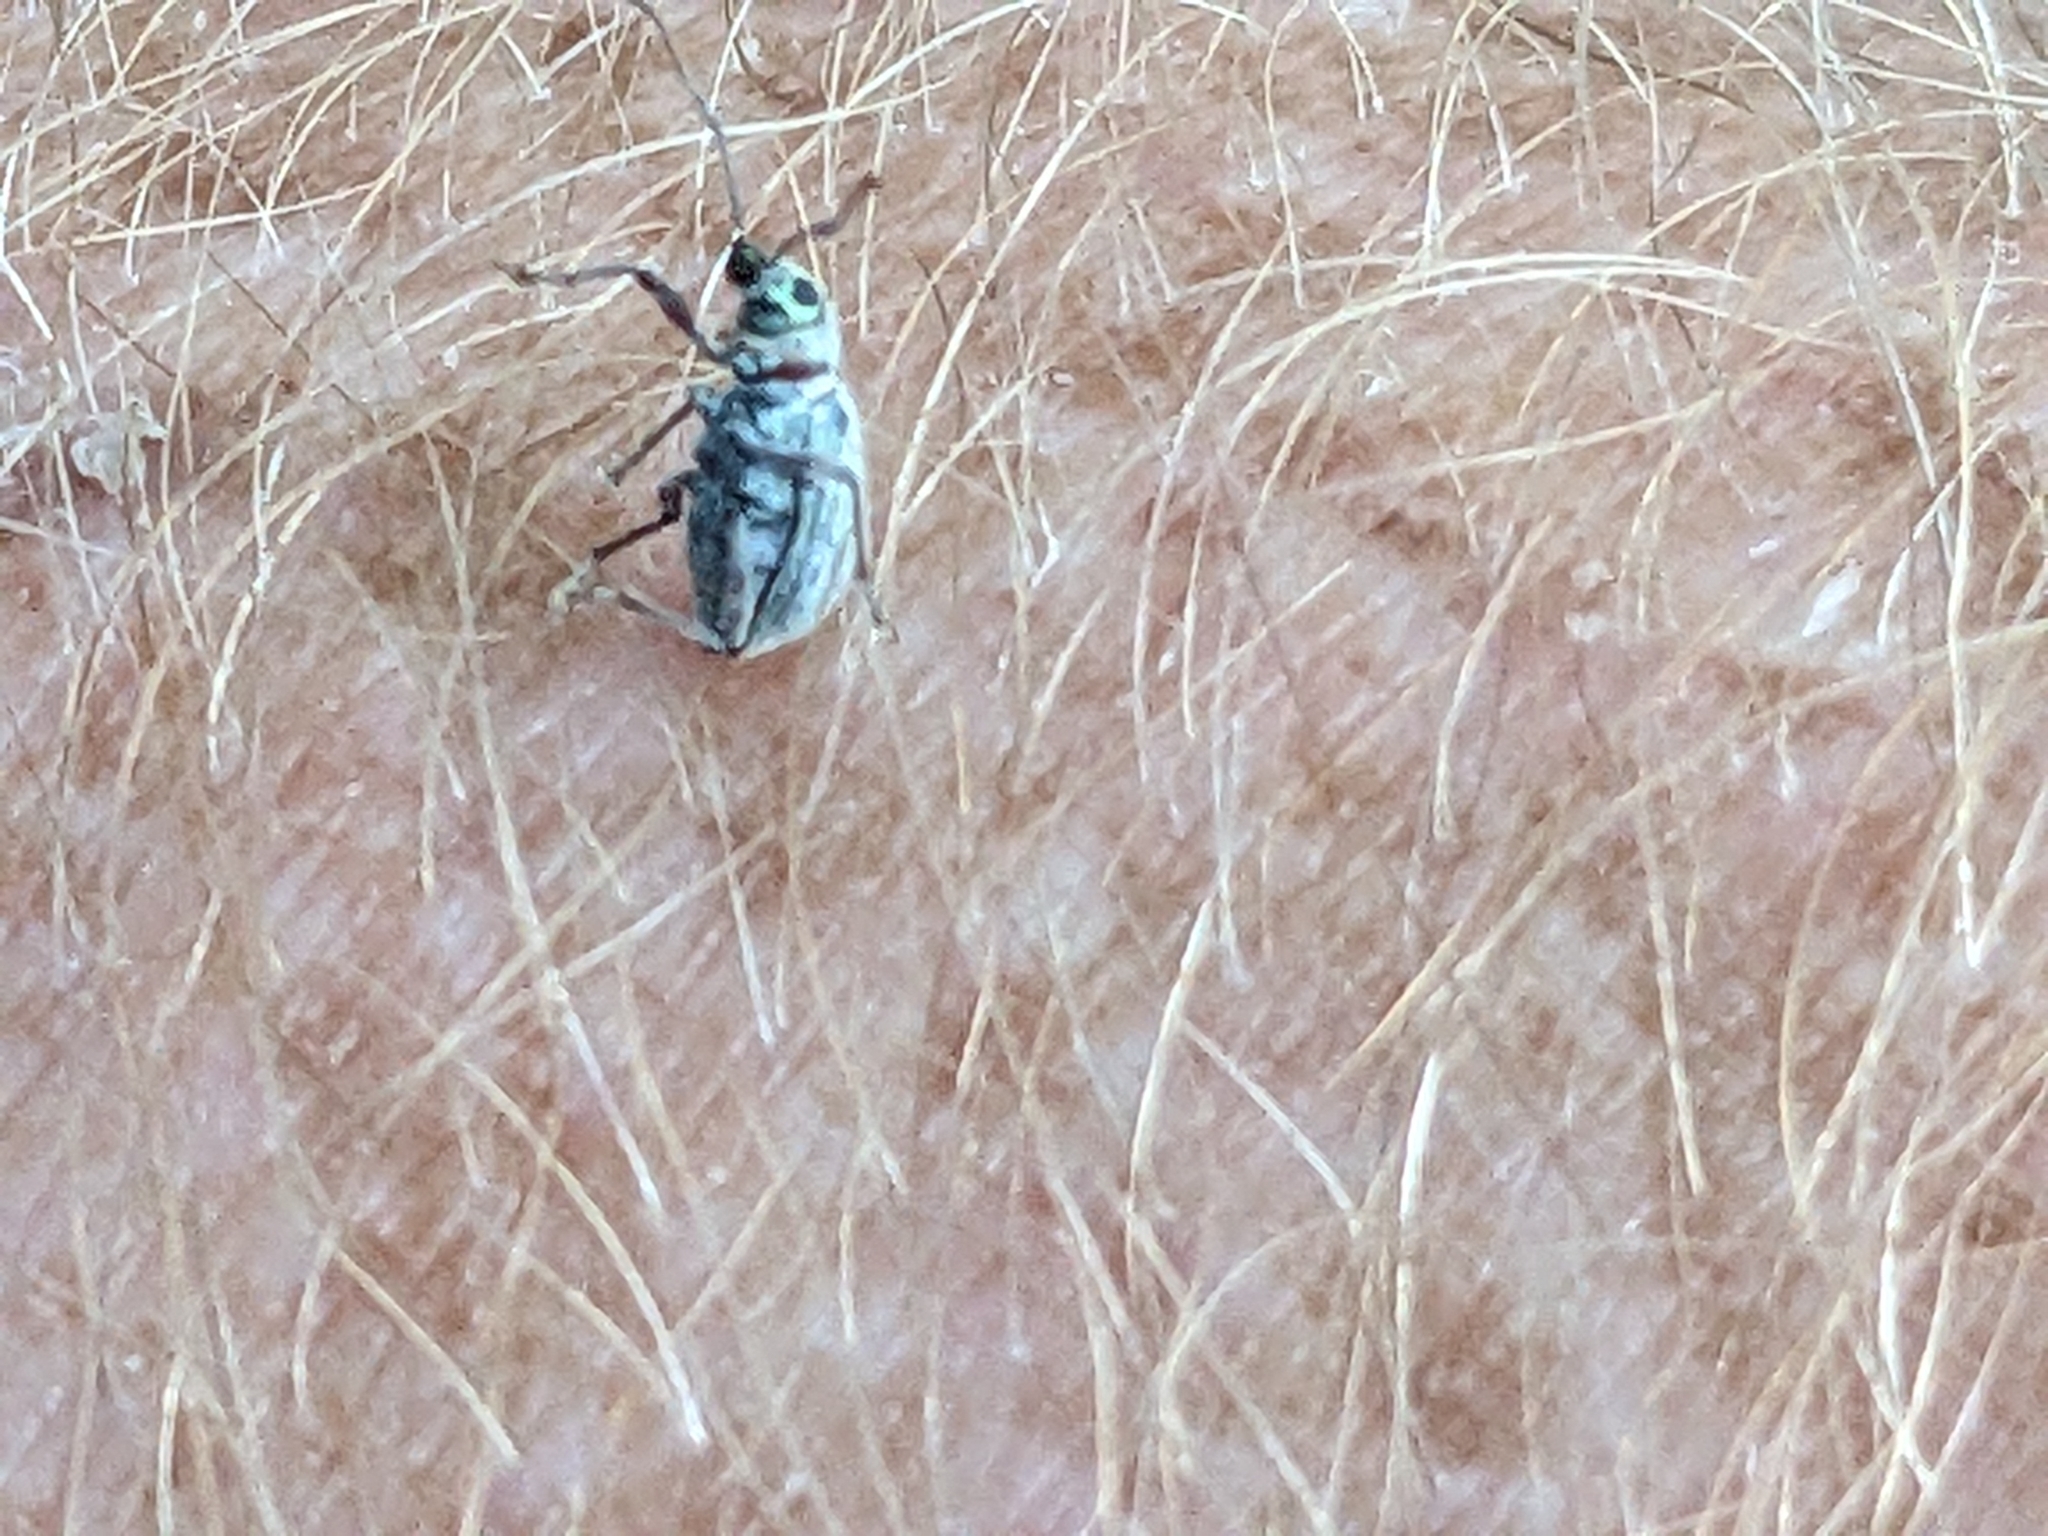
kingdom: Animalia
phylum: Arthropoda
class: Insecta
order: Coleoptera
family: Curculionidae
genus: Cyrtepistomus
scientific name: Cyrtepistomus castaneus
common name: Weevil
